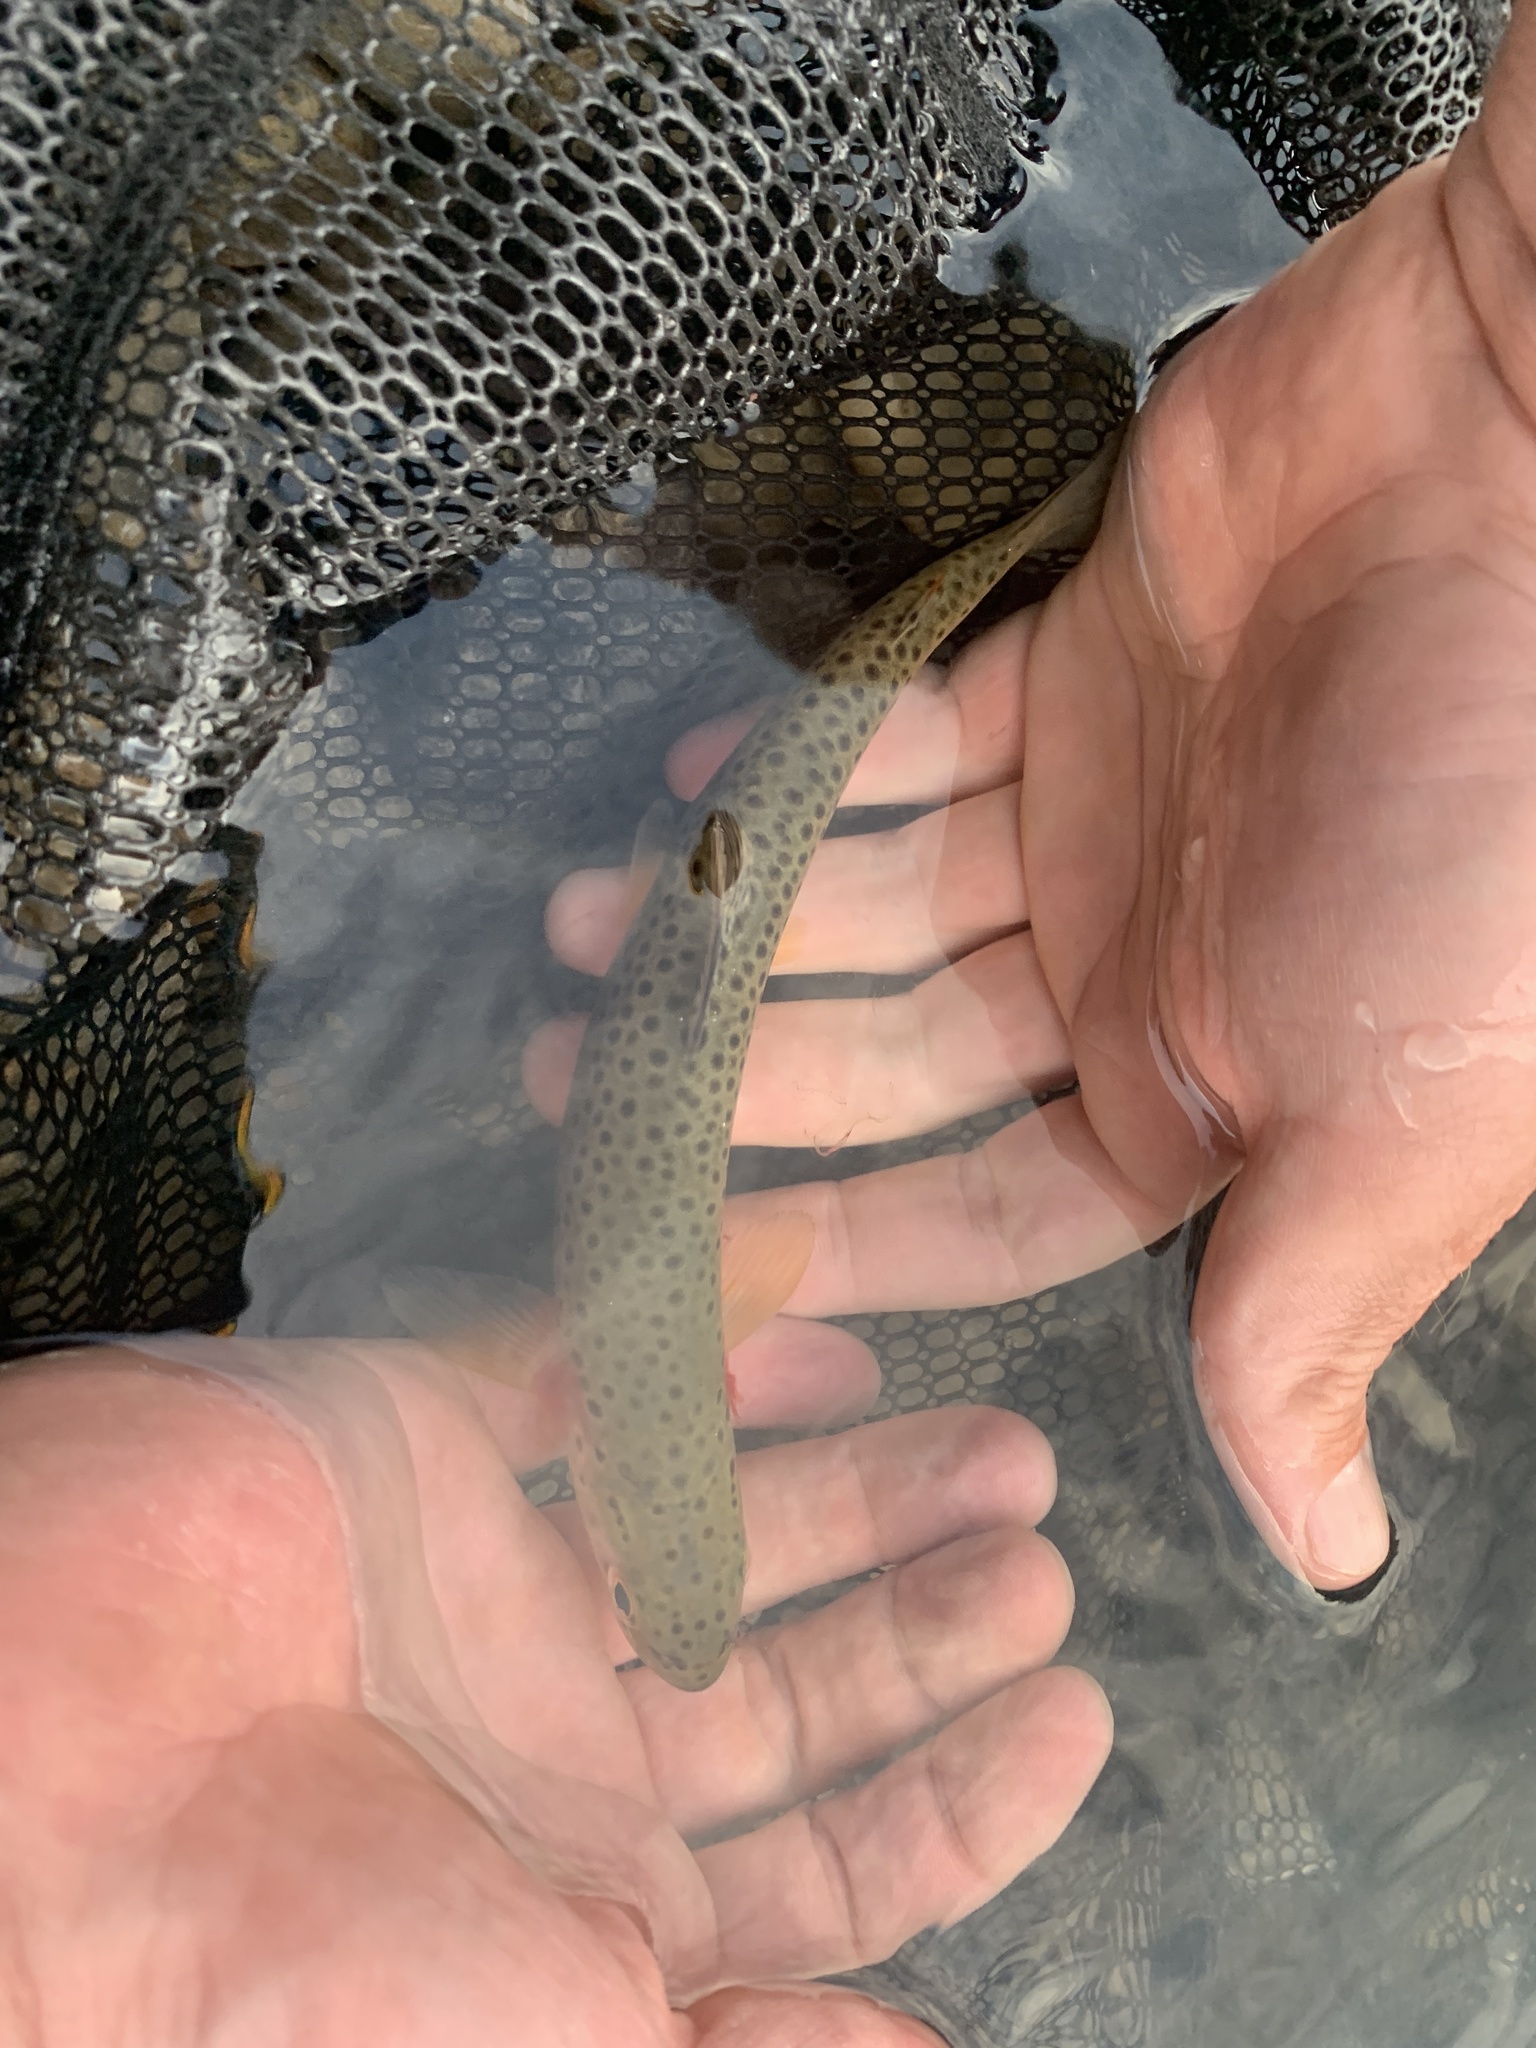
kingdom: Animalia
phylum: Chordata
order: Salmoniformes
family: Salmonidae
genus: Oncorhynchus
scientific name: Oncorhynchus
